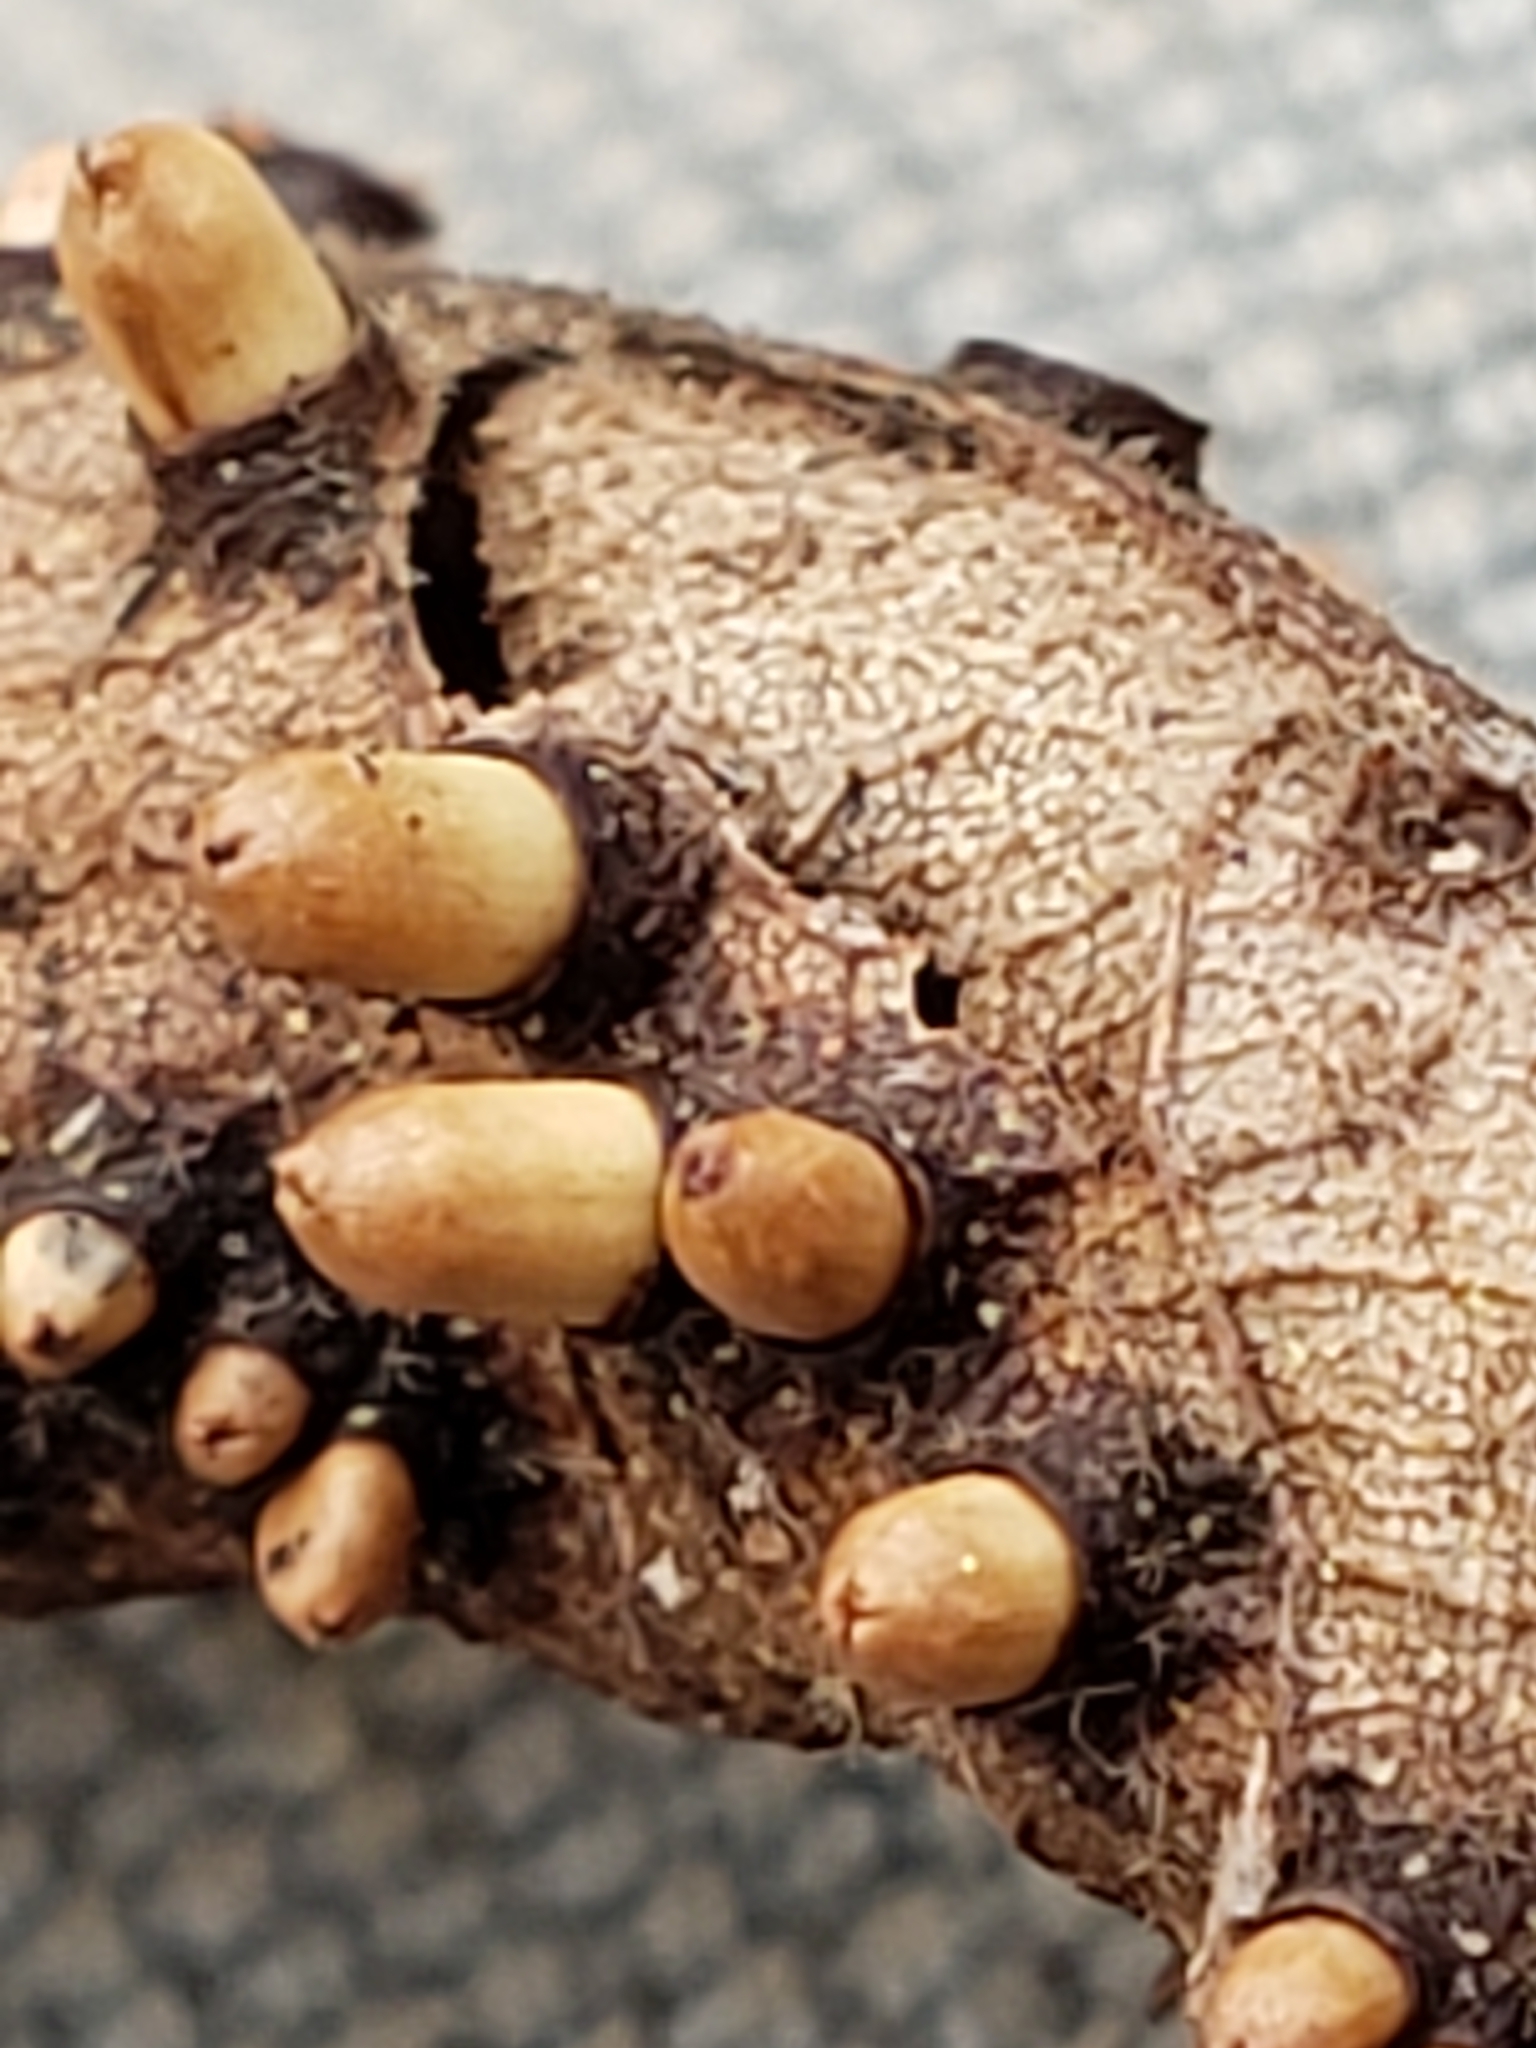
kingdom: Animalia
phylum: Arthropoda
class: Insecta
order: Diptera
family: Cecidomyiidae
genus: Caryomyia
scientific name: Caryomyia tubicola
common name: Hickory bullet gall midge
